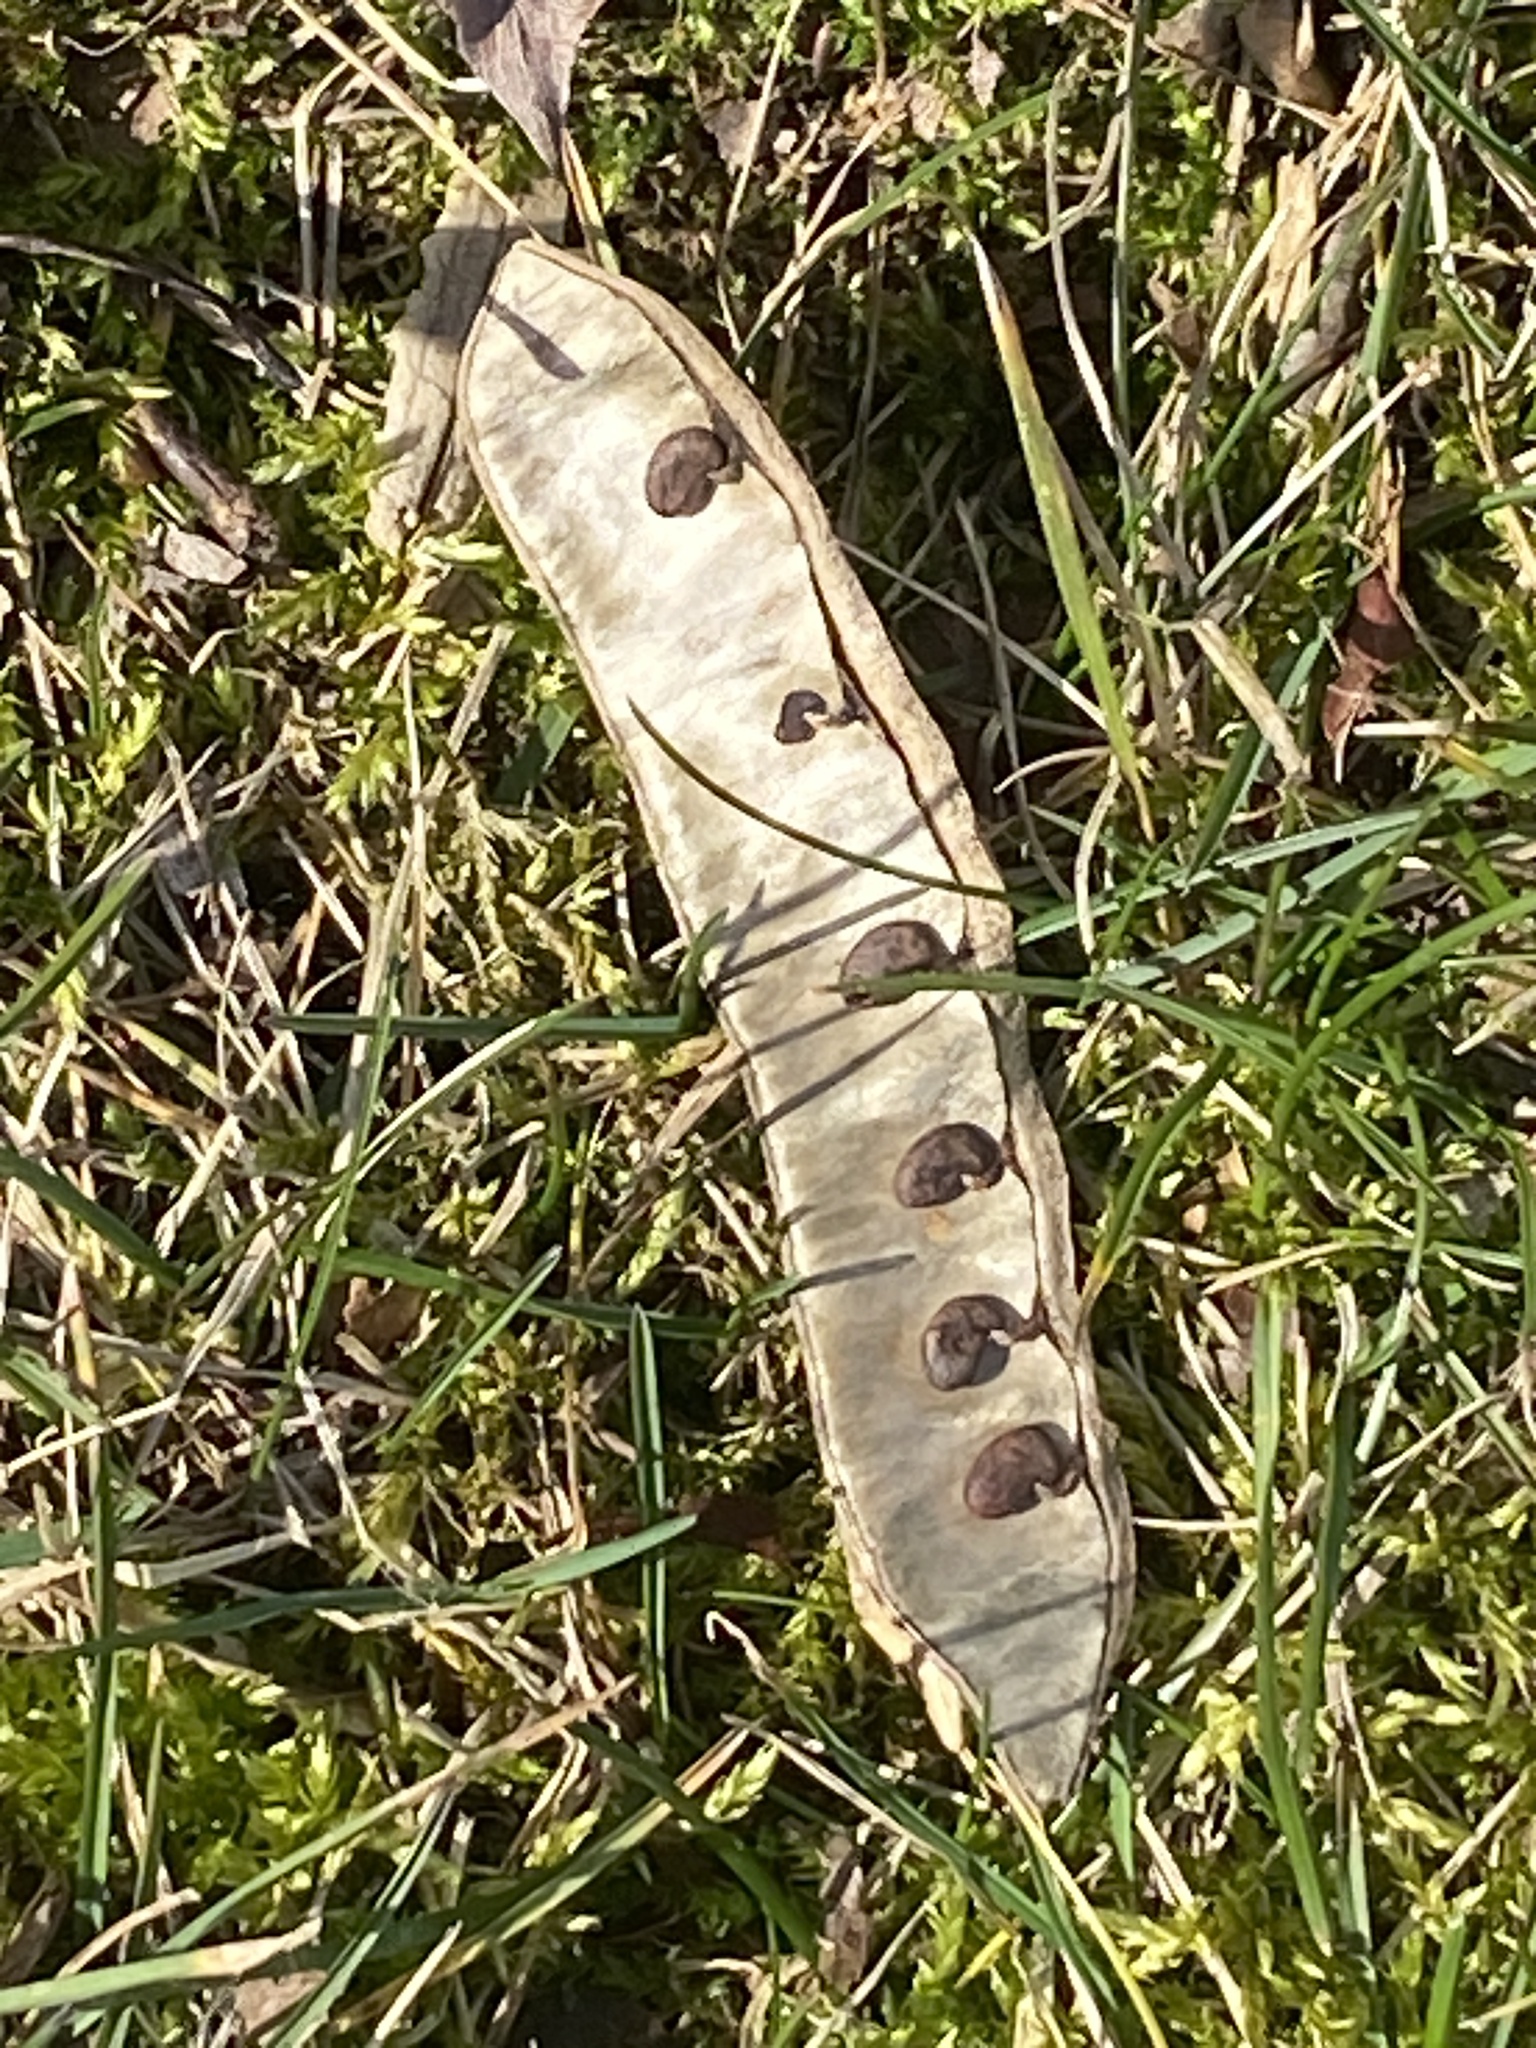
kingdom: Plantae
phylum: Tracheophyta
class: Magnoliopsida
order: Fabales
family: Fabaceae
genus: Robinia
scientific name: Robinia pseudoacacia
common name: Black locust
